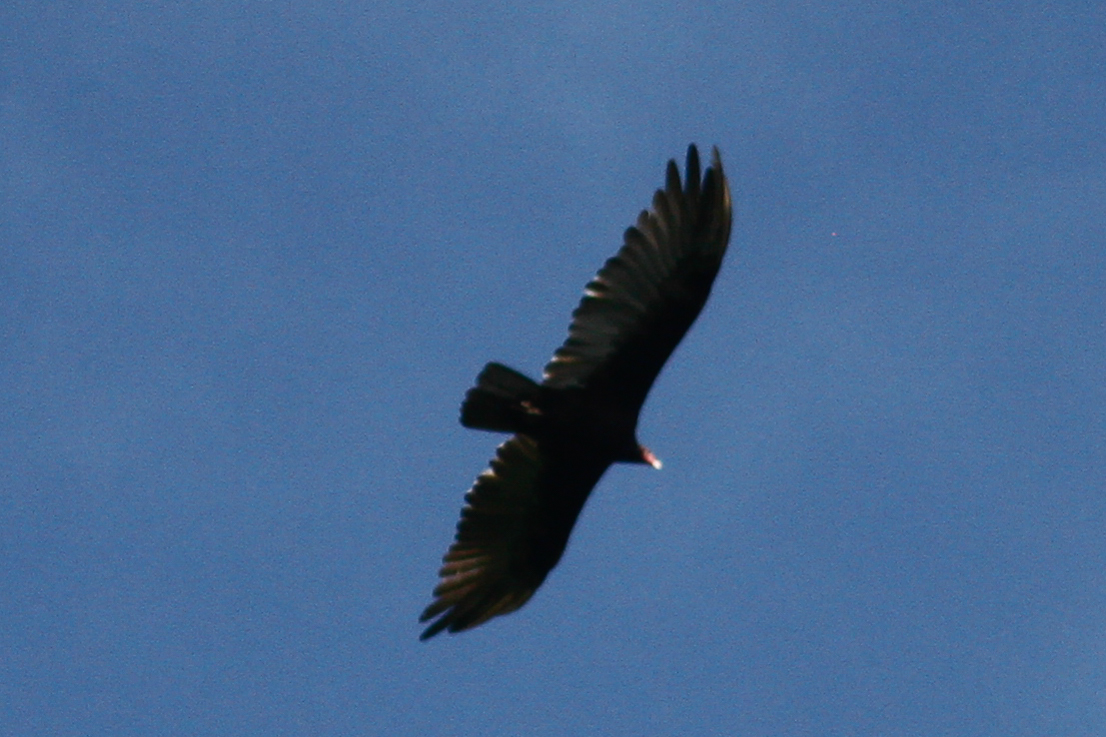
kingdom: Animalia
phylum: Chordata
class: Aves
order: Accipitriformes
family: Cathartidae
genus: Cathartes
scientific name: Cathartes aura
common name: Turkey vulture
